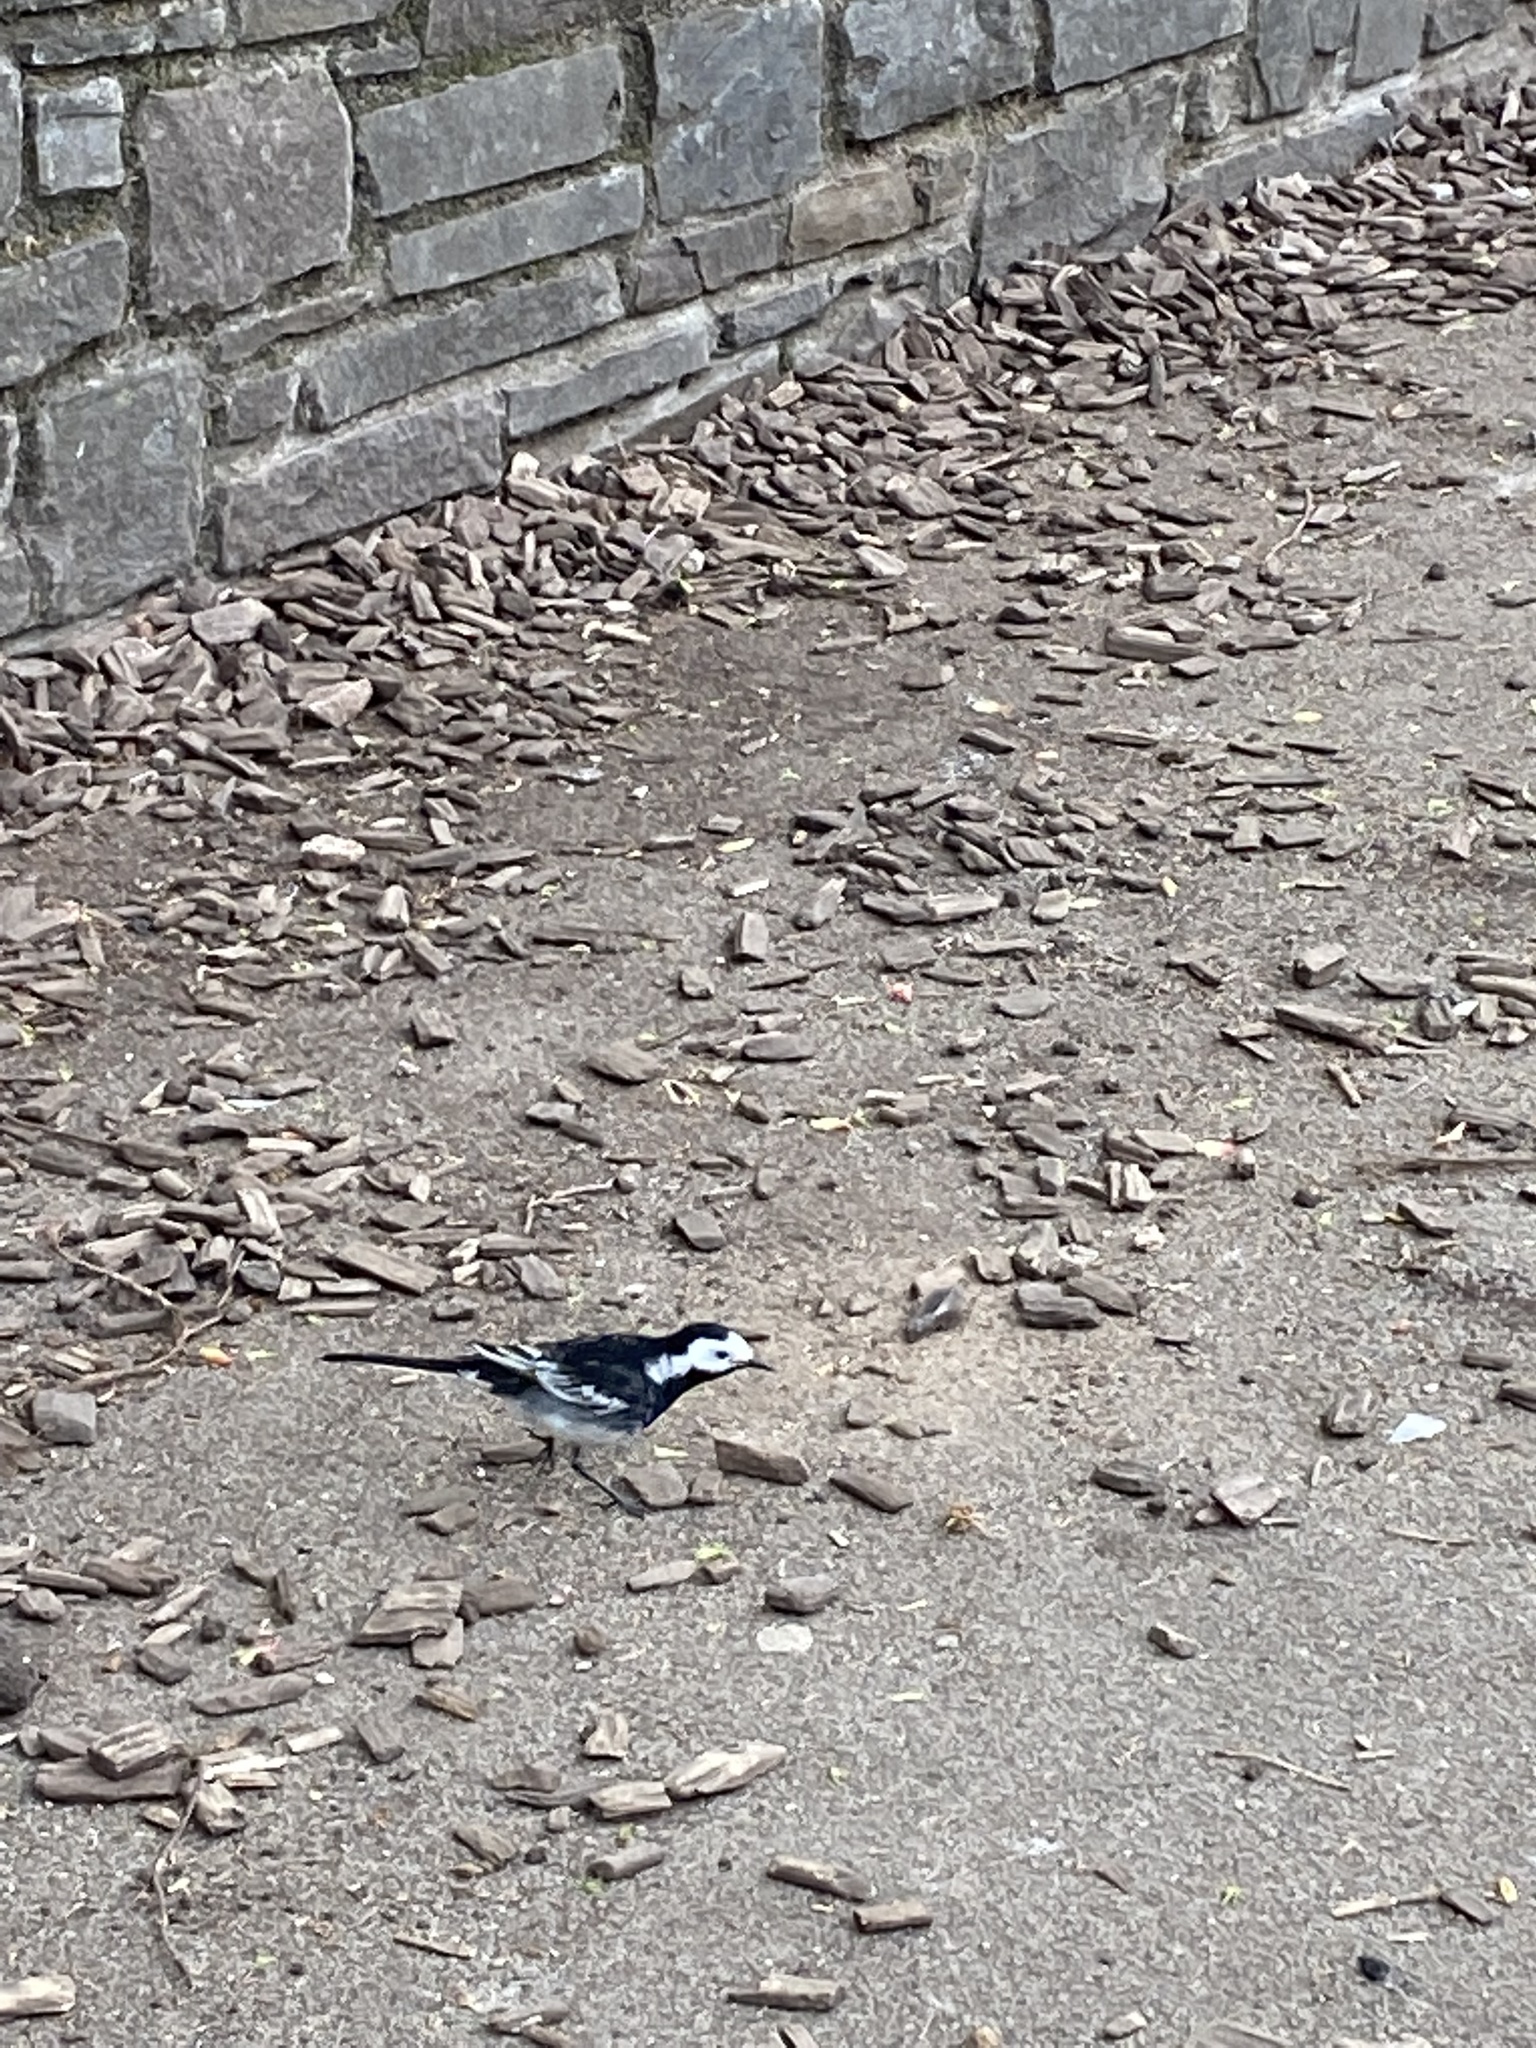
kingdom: Animalia
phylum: Chordata
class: Aves
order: Passeriformes
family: Motacillidae
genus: Motacilla
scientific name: Motacilla alba
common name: White wagtail
